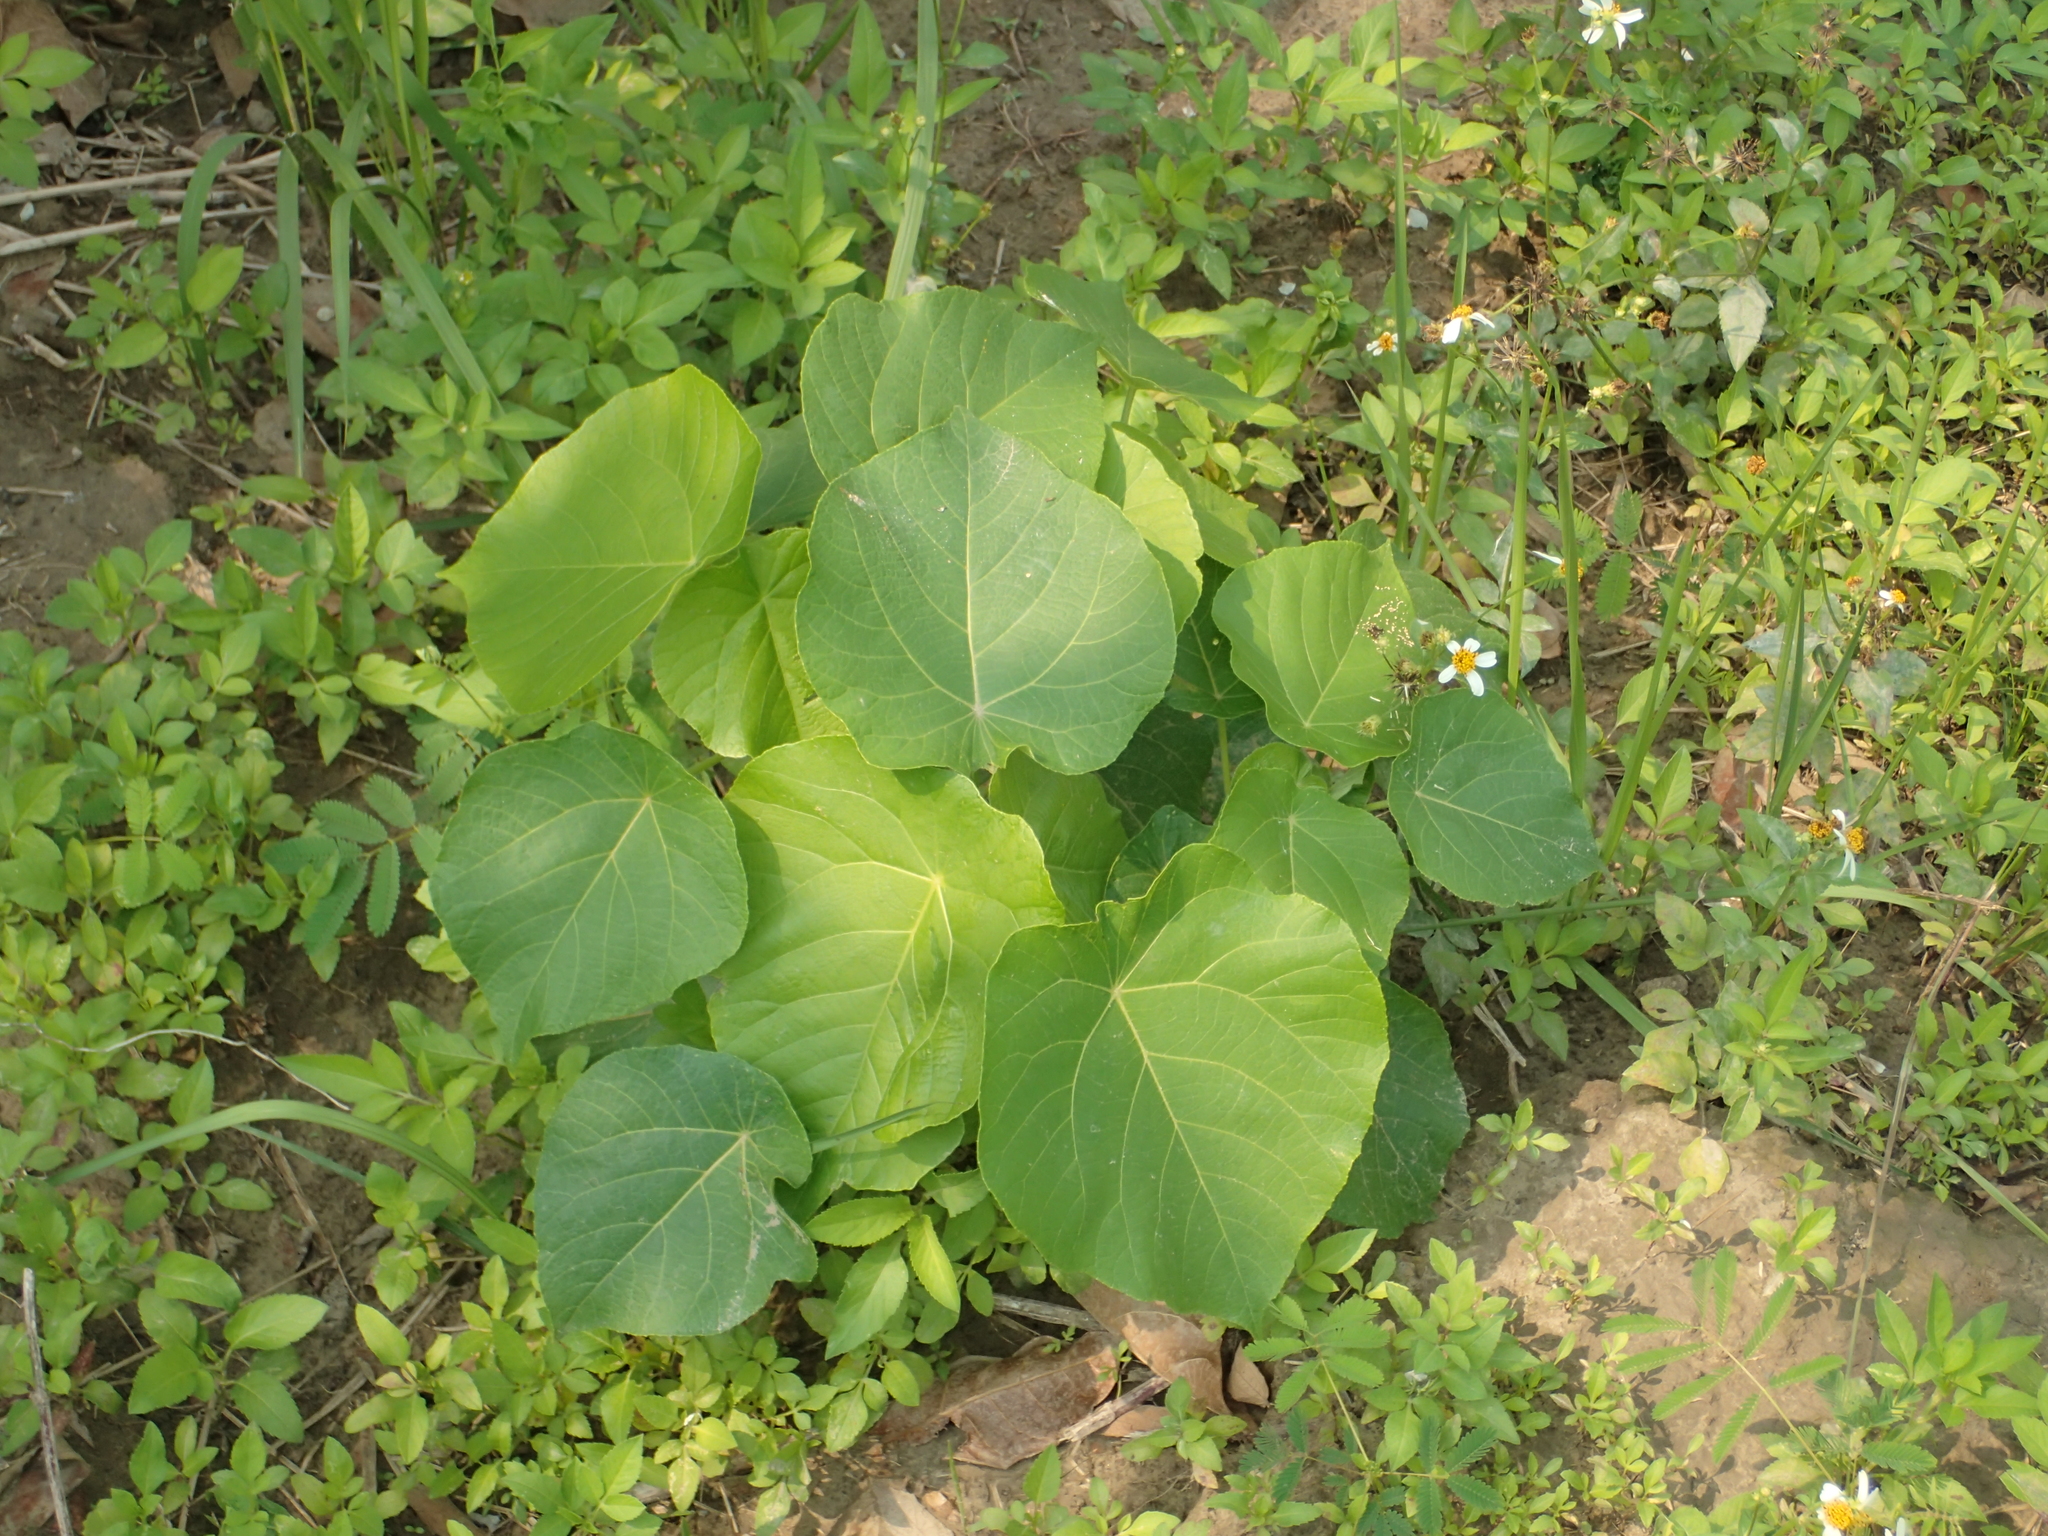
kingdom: Plantae
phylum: Tracheophyta
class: Magnoliopsida
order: Malpighiales
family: Euphorbiaceae
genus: Macaranga
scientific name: Macaranga tanarius
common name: Parasol leaf tree
